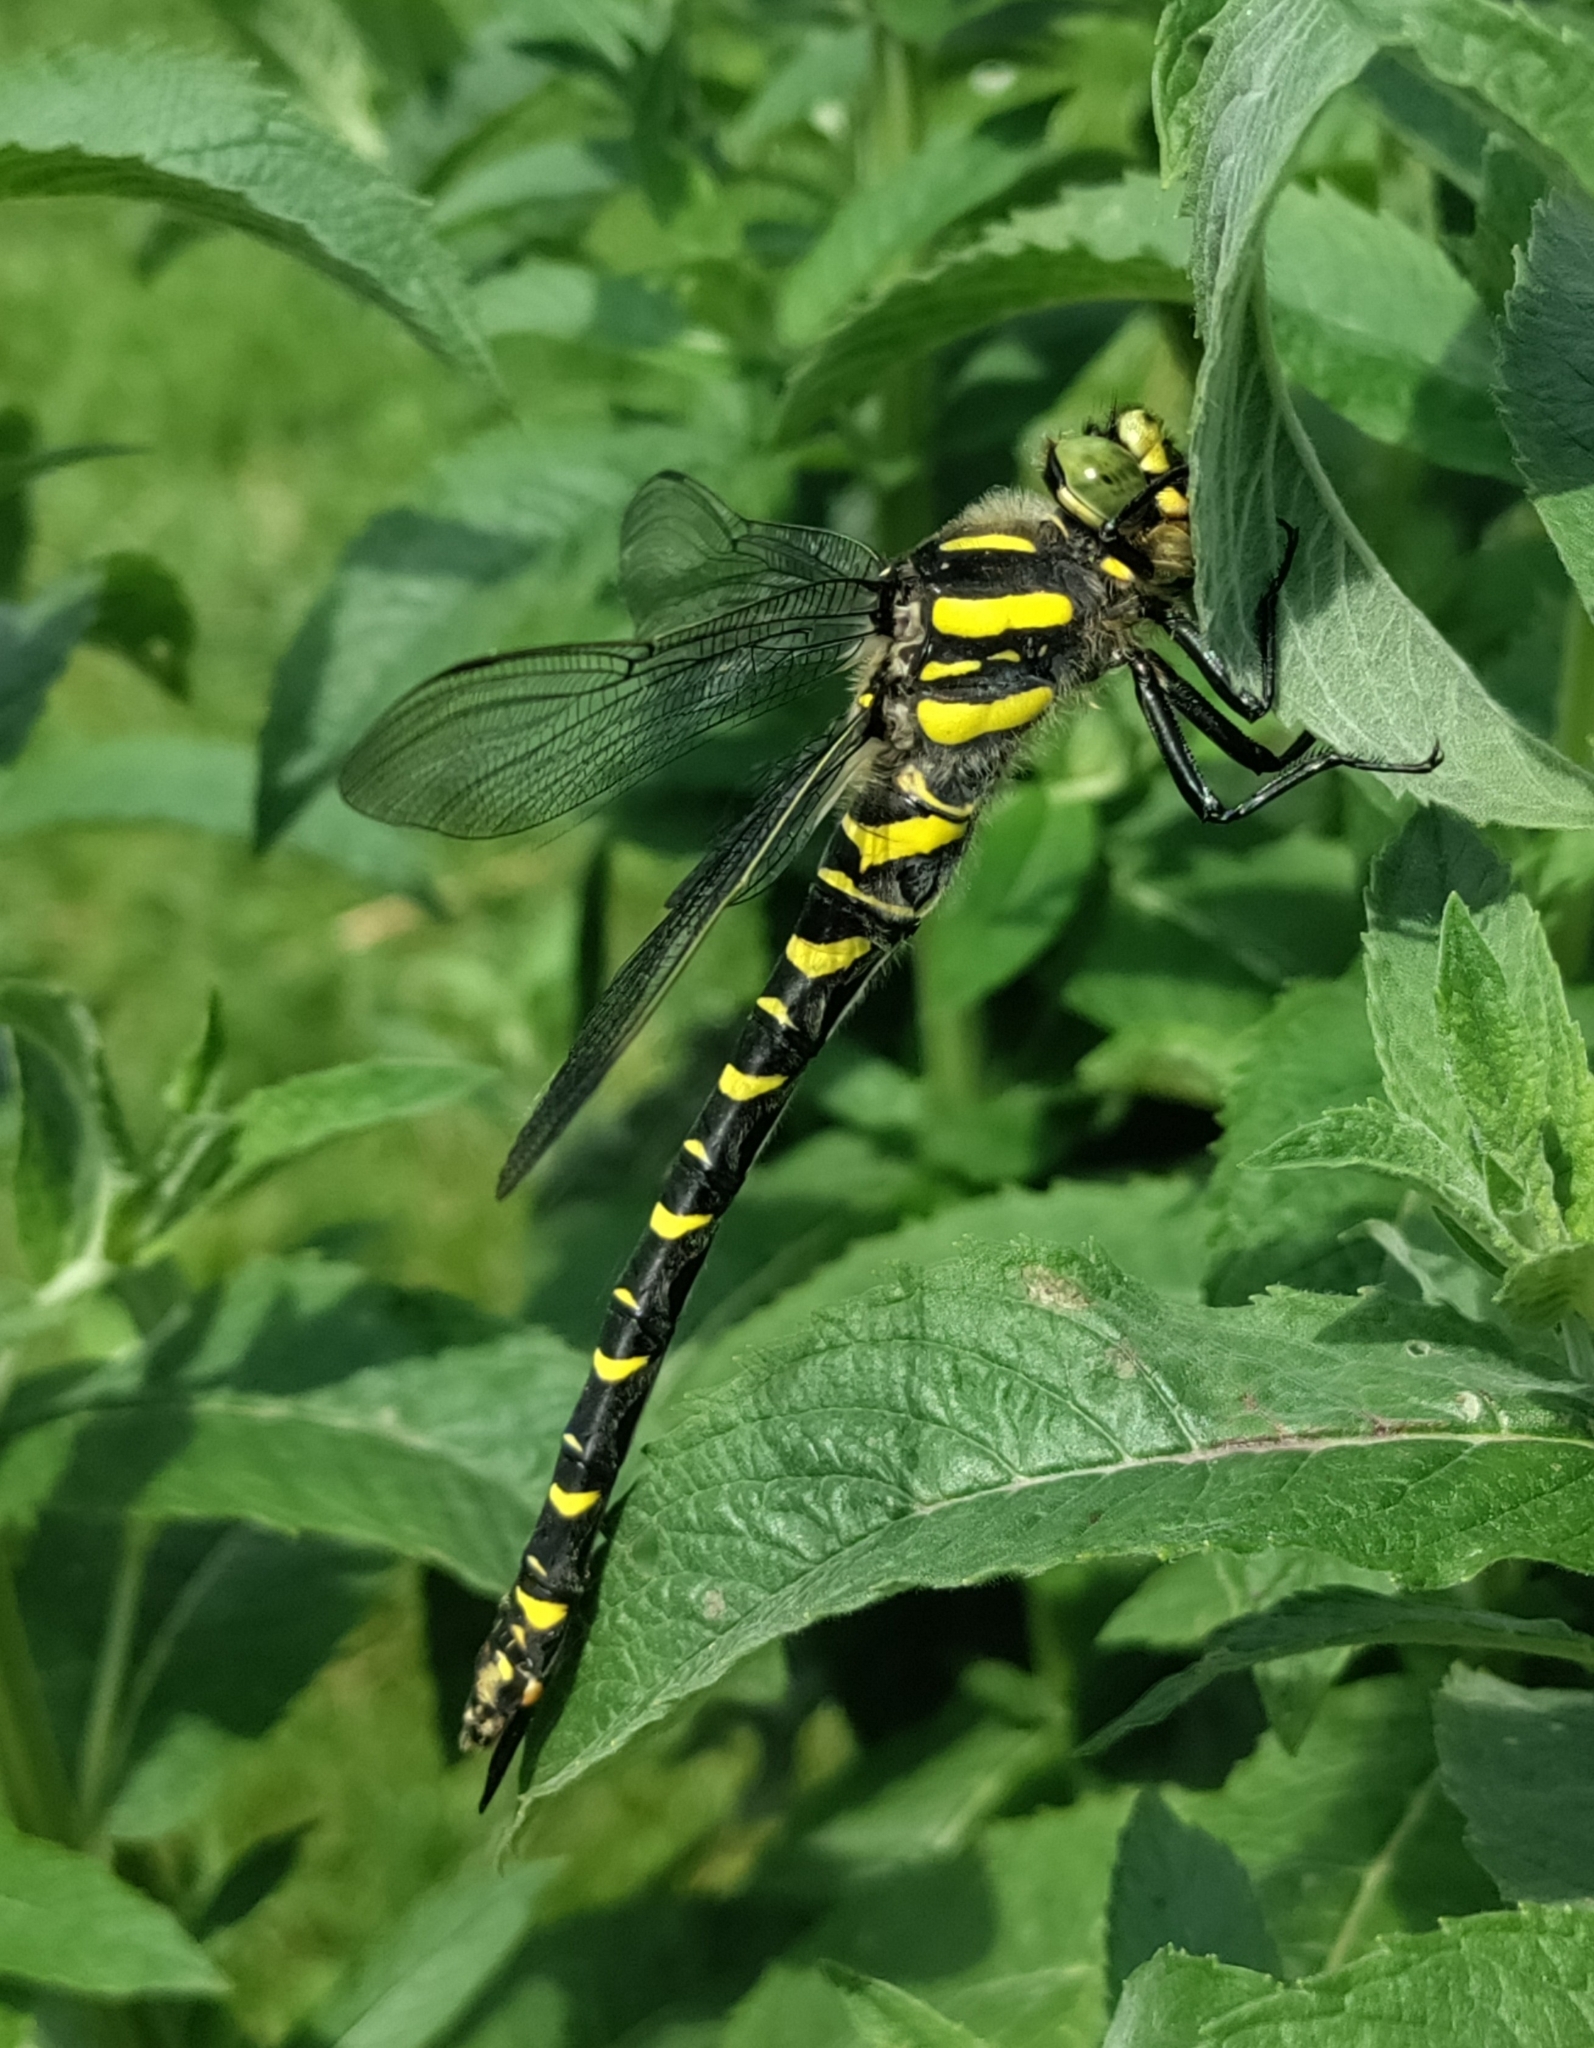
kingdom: Animalia
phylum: Arthropoda
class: Insecta
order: Odonata
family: Cordulegastridae
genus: Cordulegaster
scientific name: Cordulegaster boltonii
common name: Golden-ringed dragonfly
